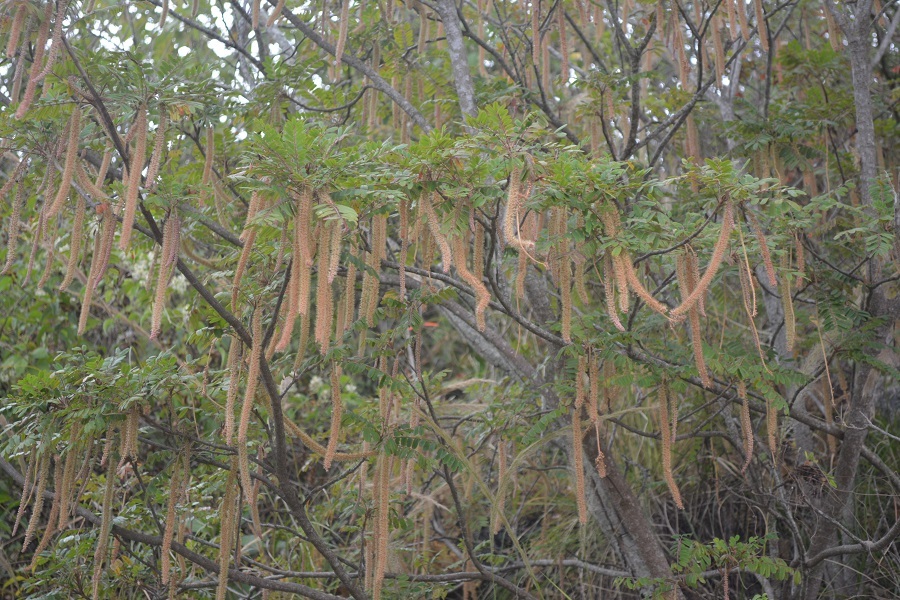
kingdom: Plantae
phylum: Tracheophyta
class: Magnoliopsida
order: Picramniales
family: Picramniaceae
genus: Alvaradoa
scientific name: Alvaradoa amorphoides
